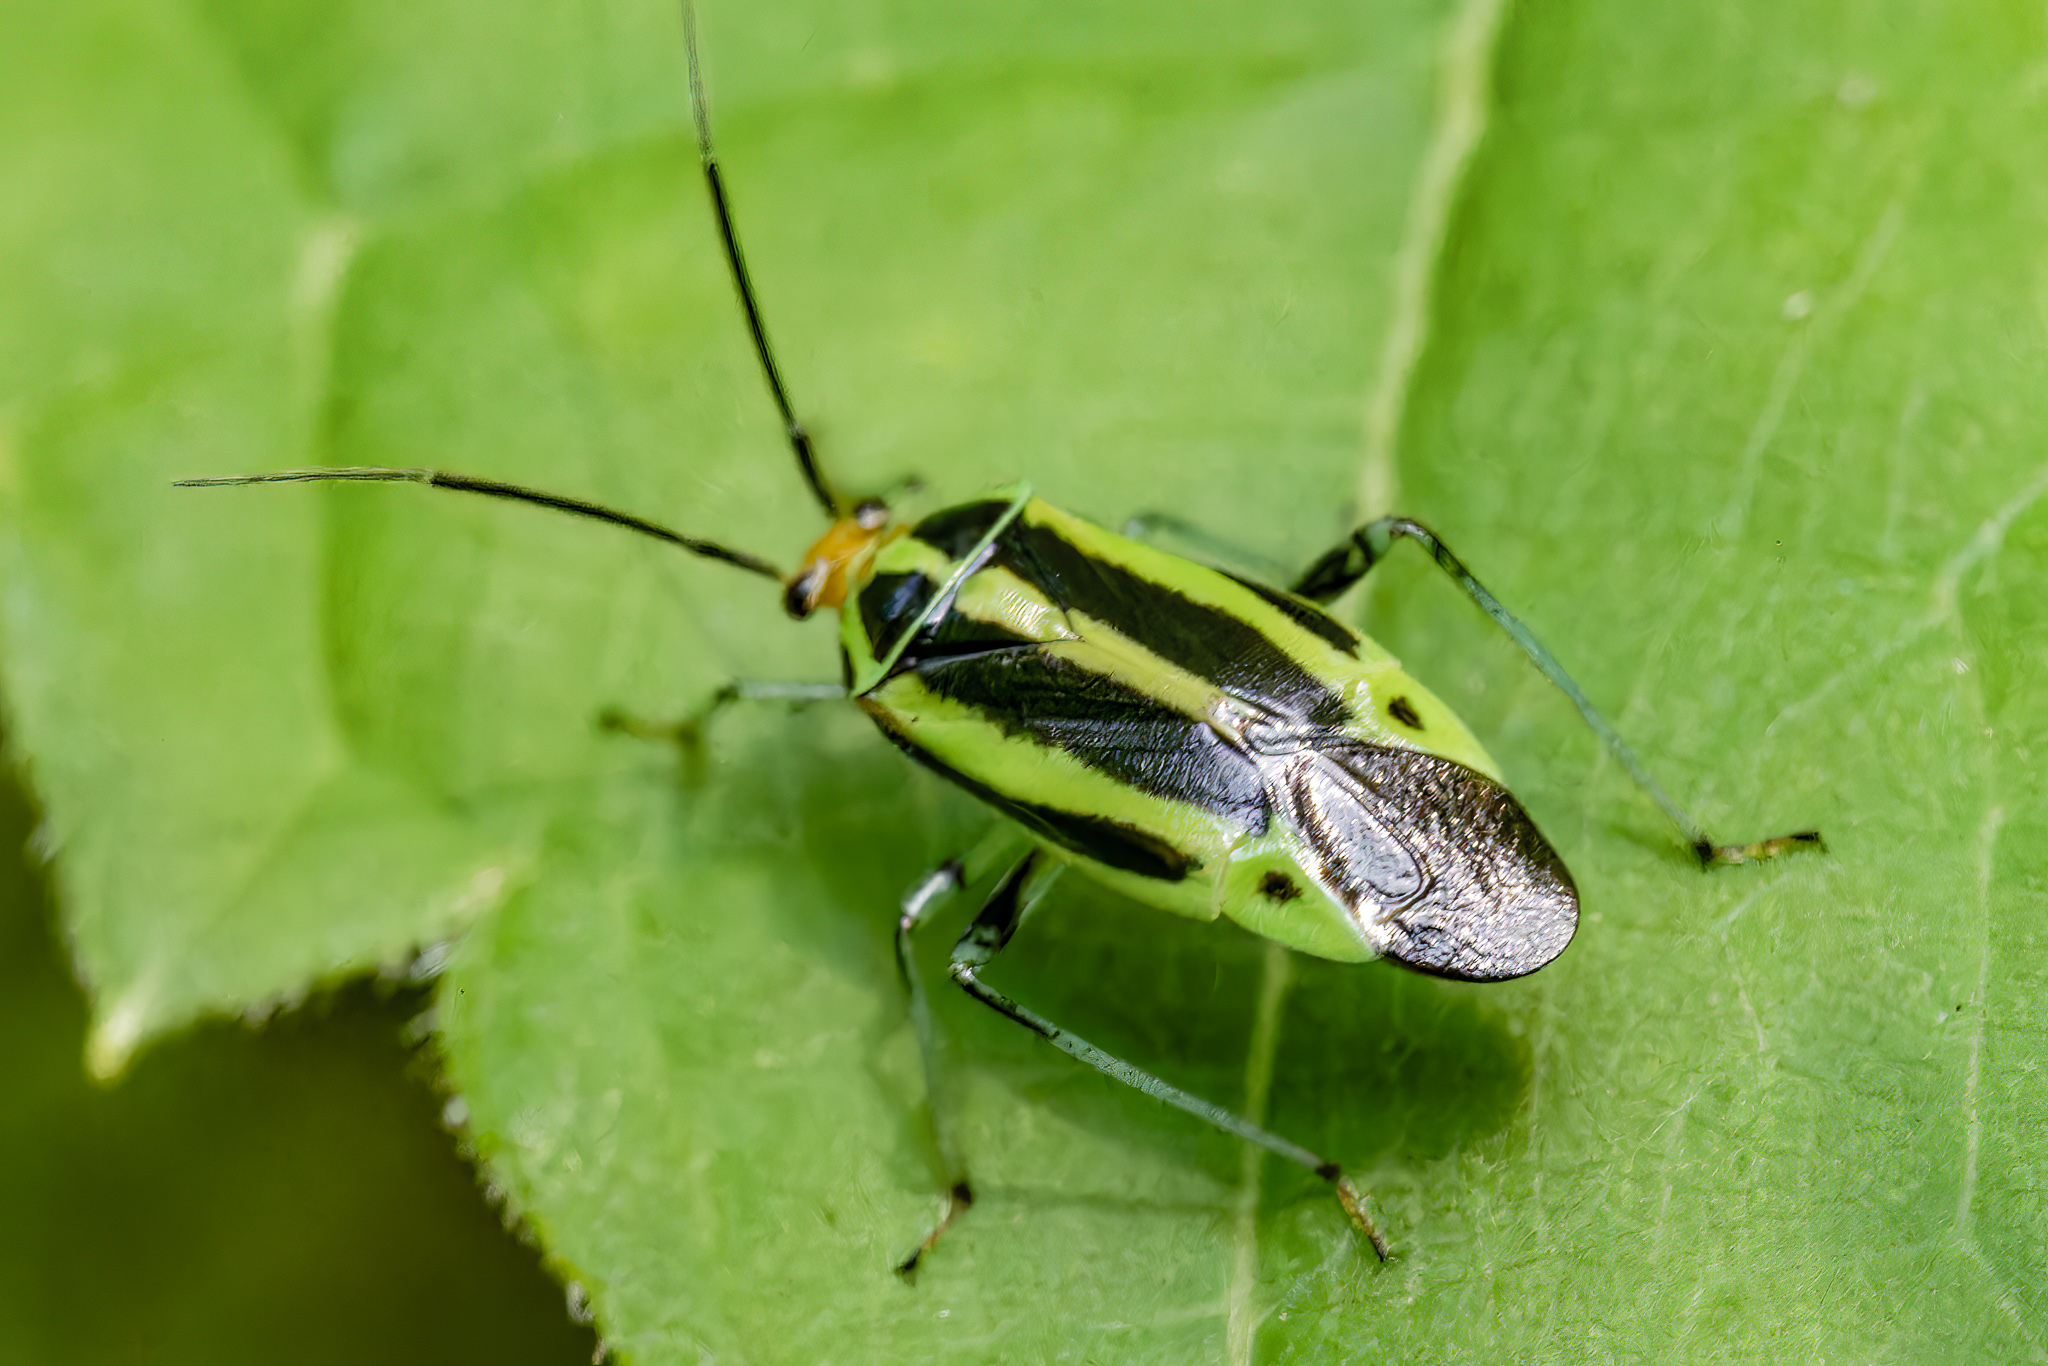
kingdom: Animalia
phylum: Arthropoda
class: Insecta
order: Hemiptera
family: Miridae
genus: Poecilocapsus
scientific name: Poecilocapsus lineatus
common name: Four-lined plant bug
